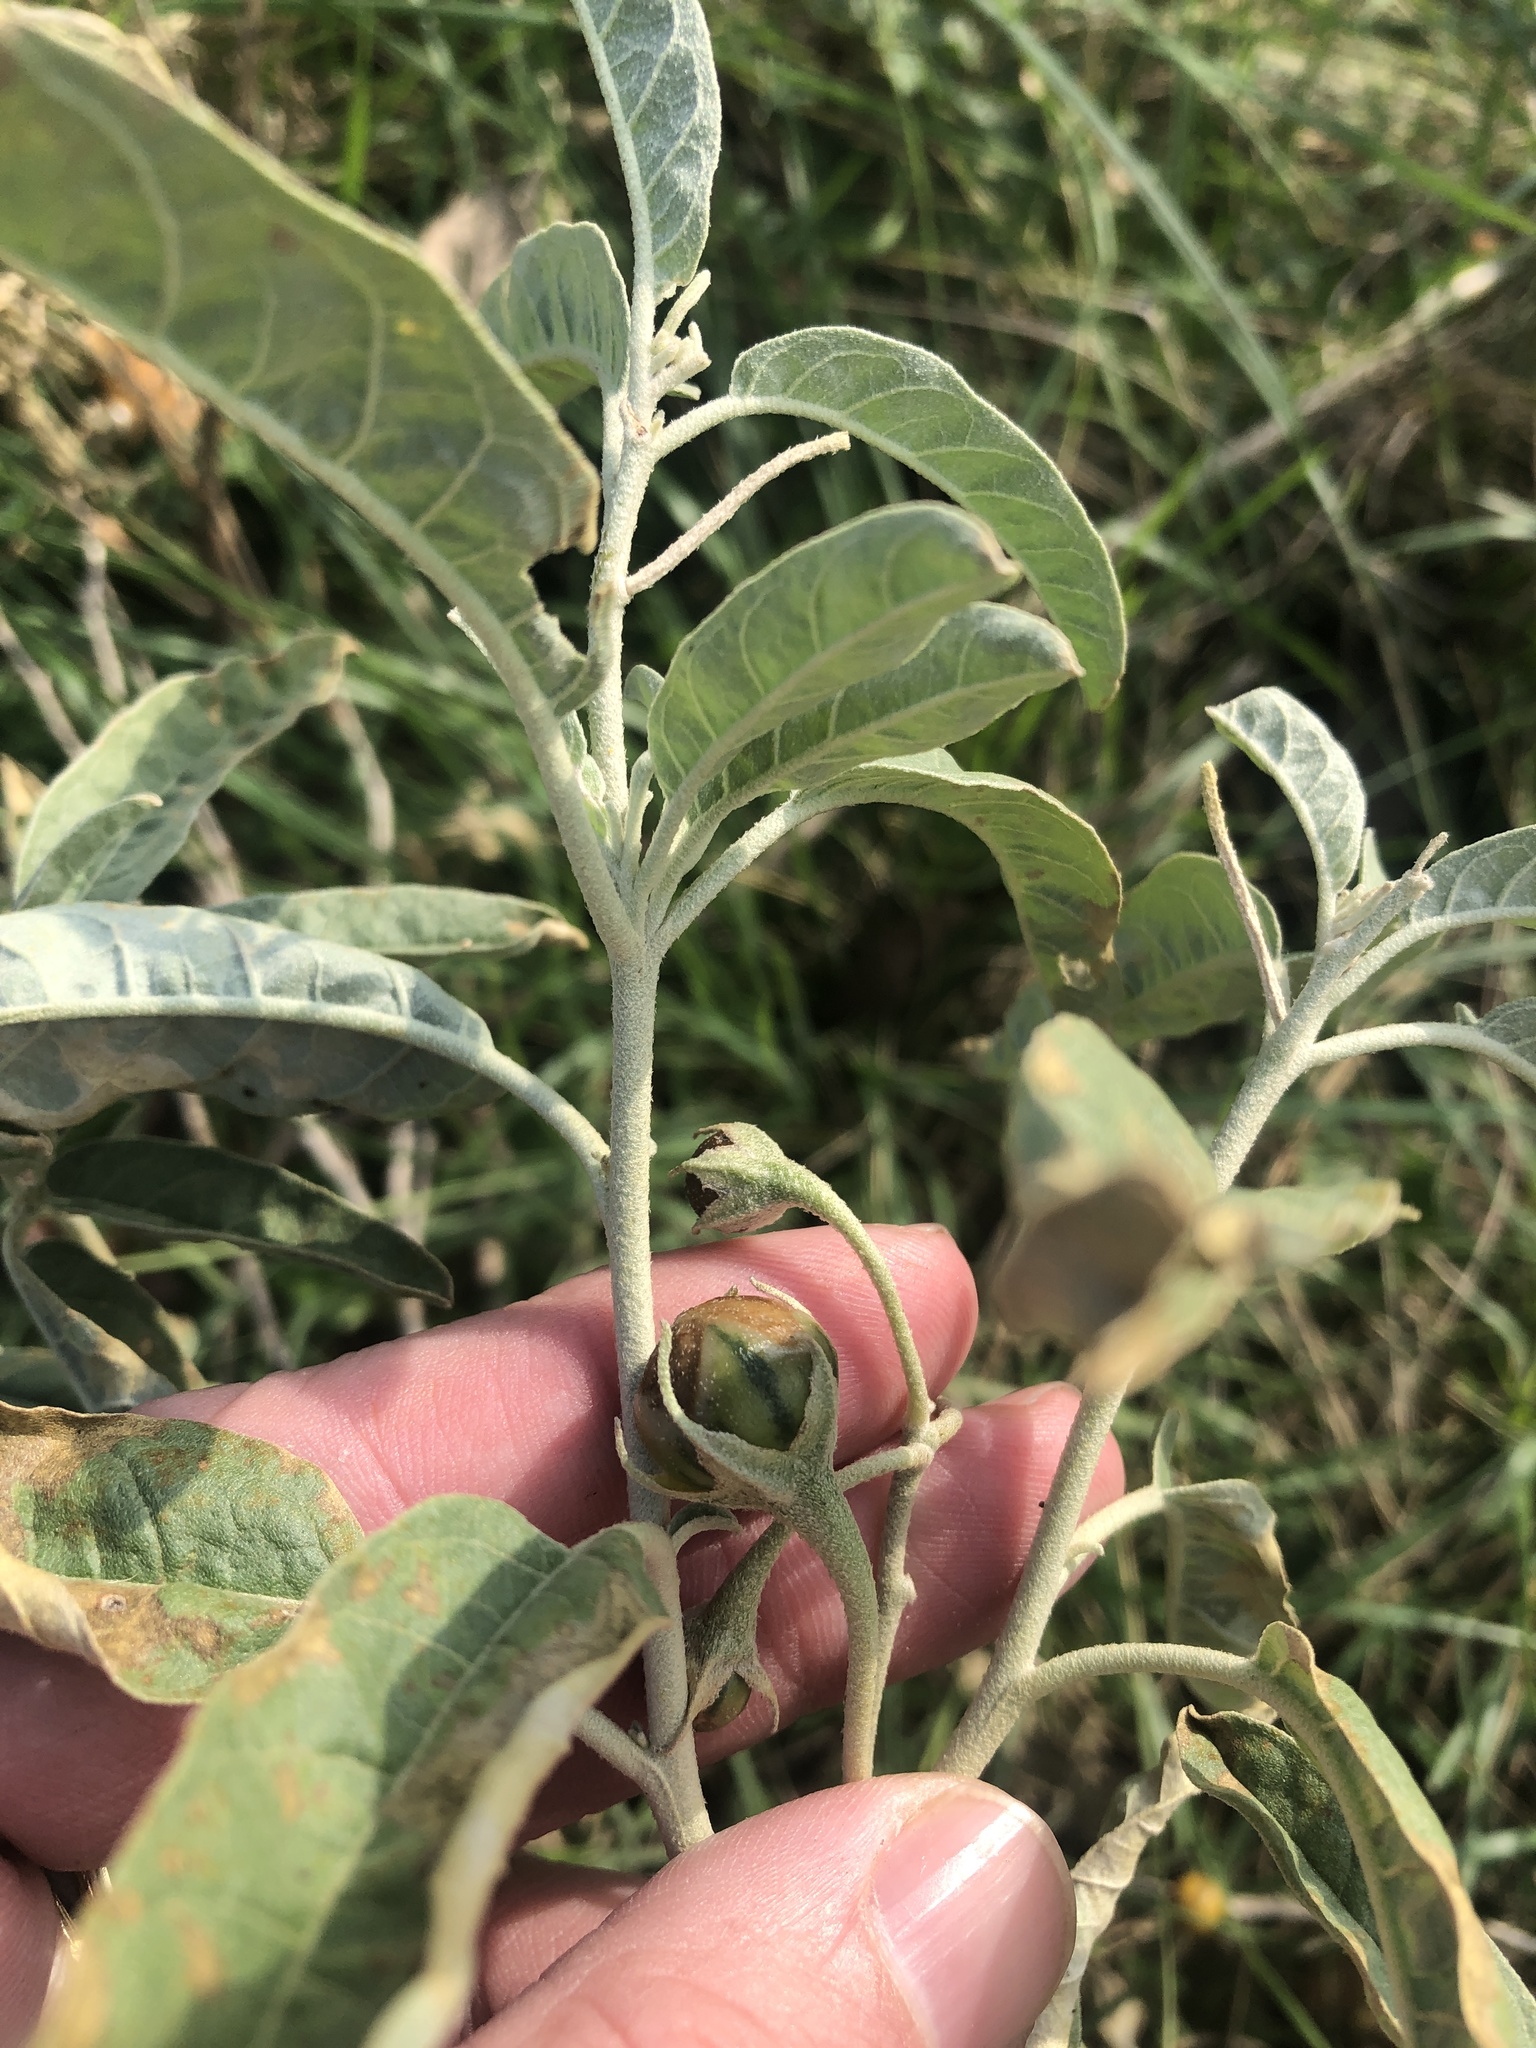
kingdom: Plantae
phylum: Tracheophyta
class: Magnoliopsida
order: Solanales
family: Solanaceae
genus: Solanum
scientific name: Solanum elaeagnifolium
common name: Silverleaf nightshade
